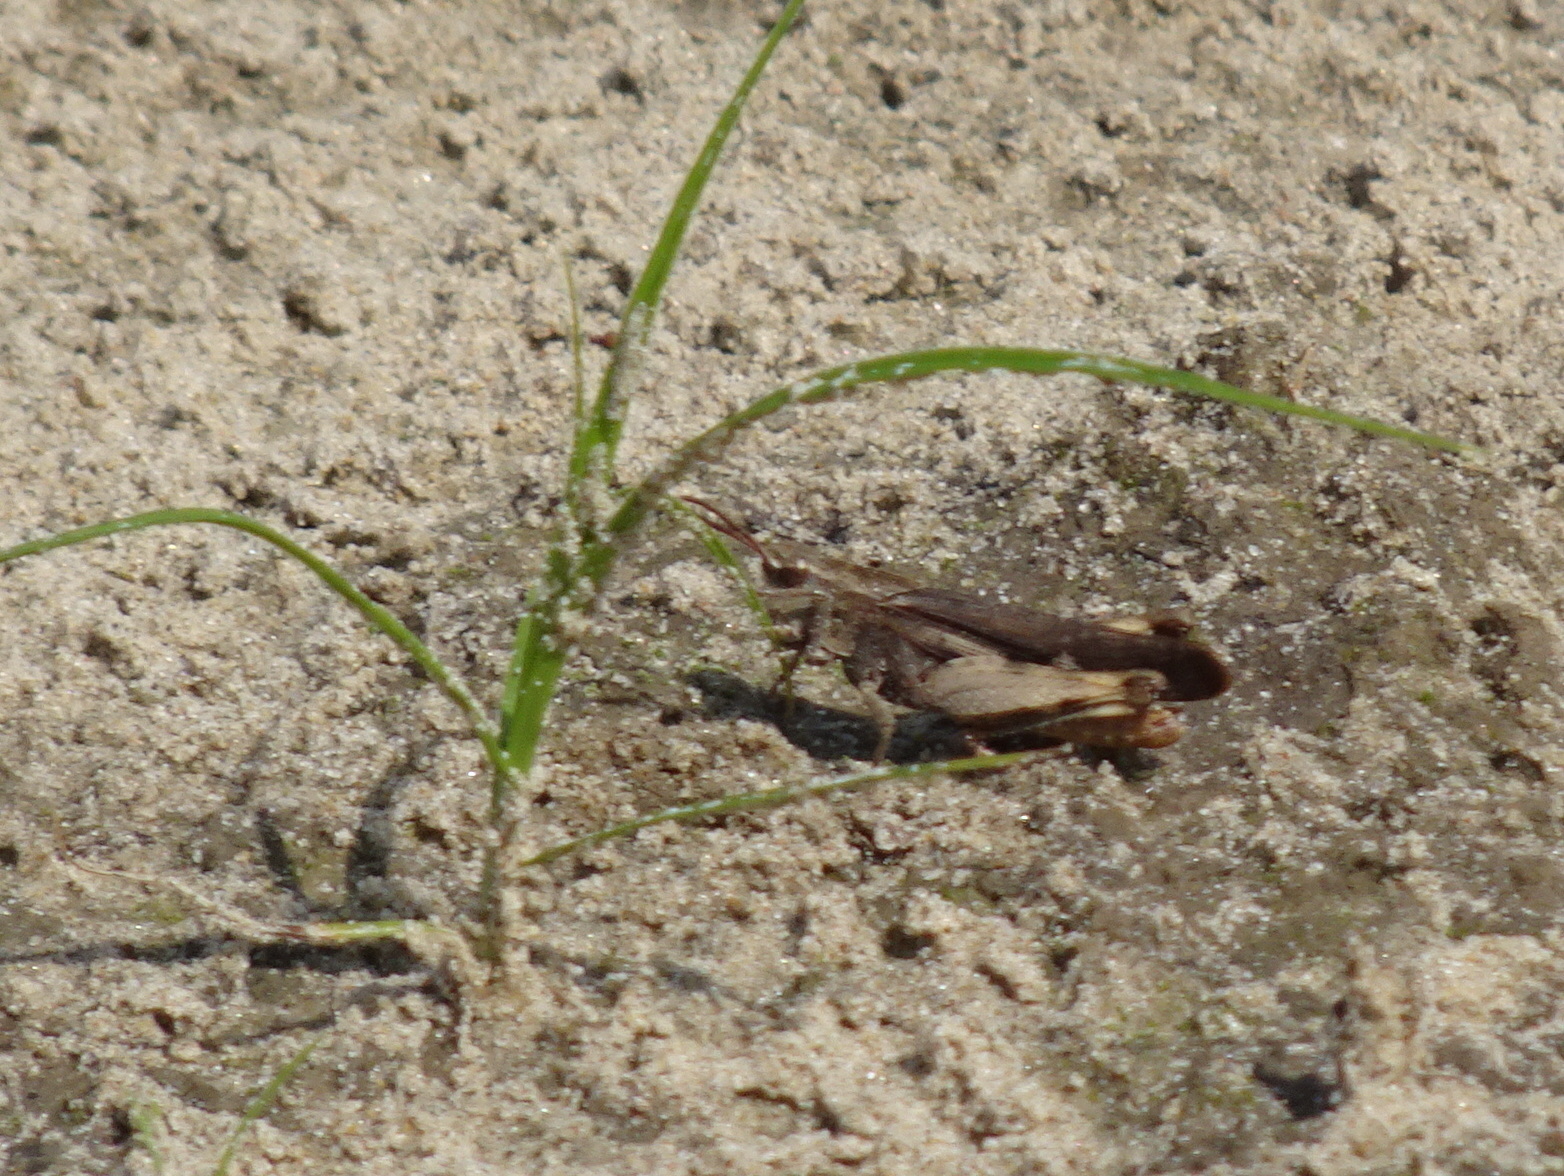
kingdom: Animalia
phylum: Arthropoda
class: Insecta
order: Orthoptera
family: Acrididae
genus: Chortophaga
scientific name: Chortophaga viridifasciata
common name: Green-striped grasshopper
